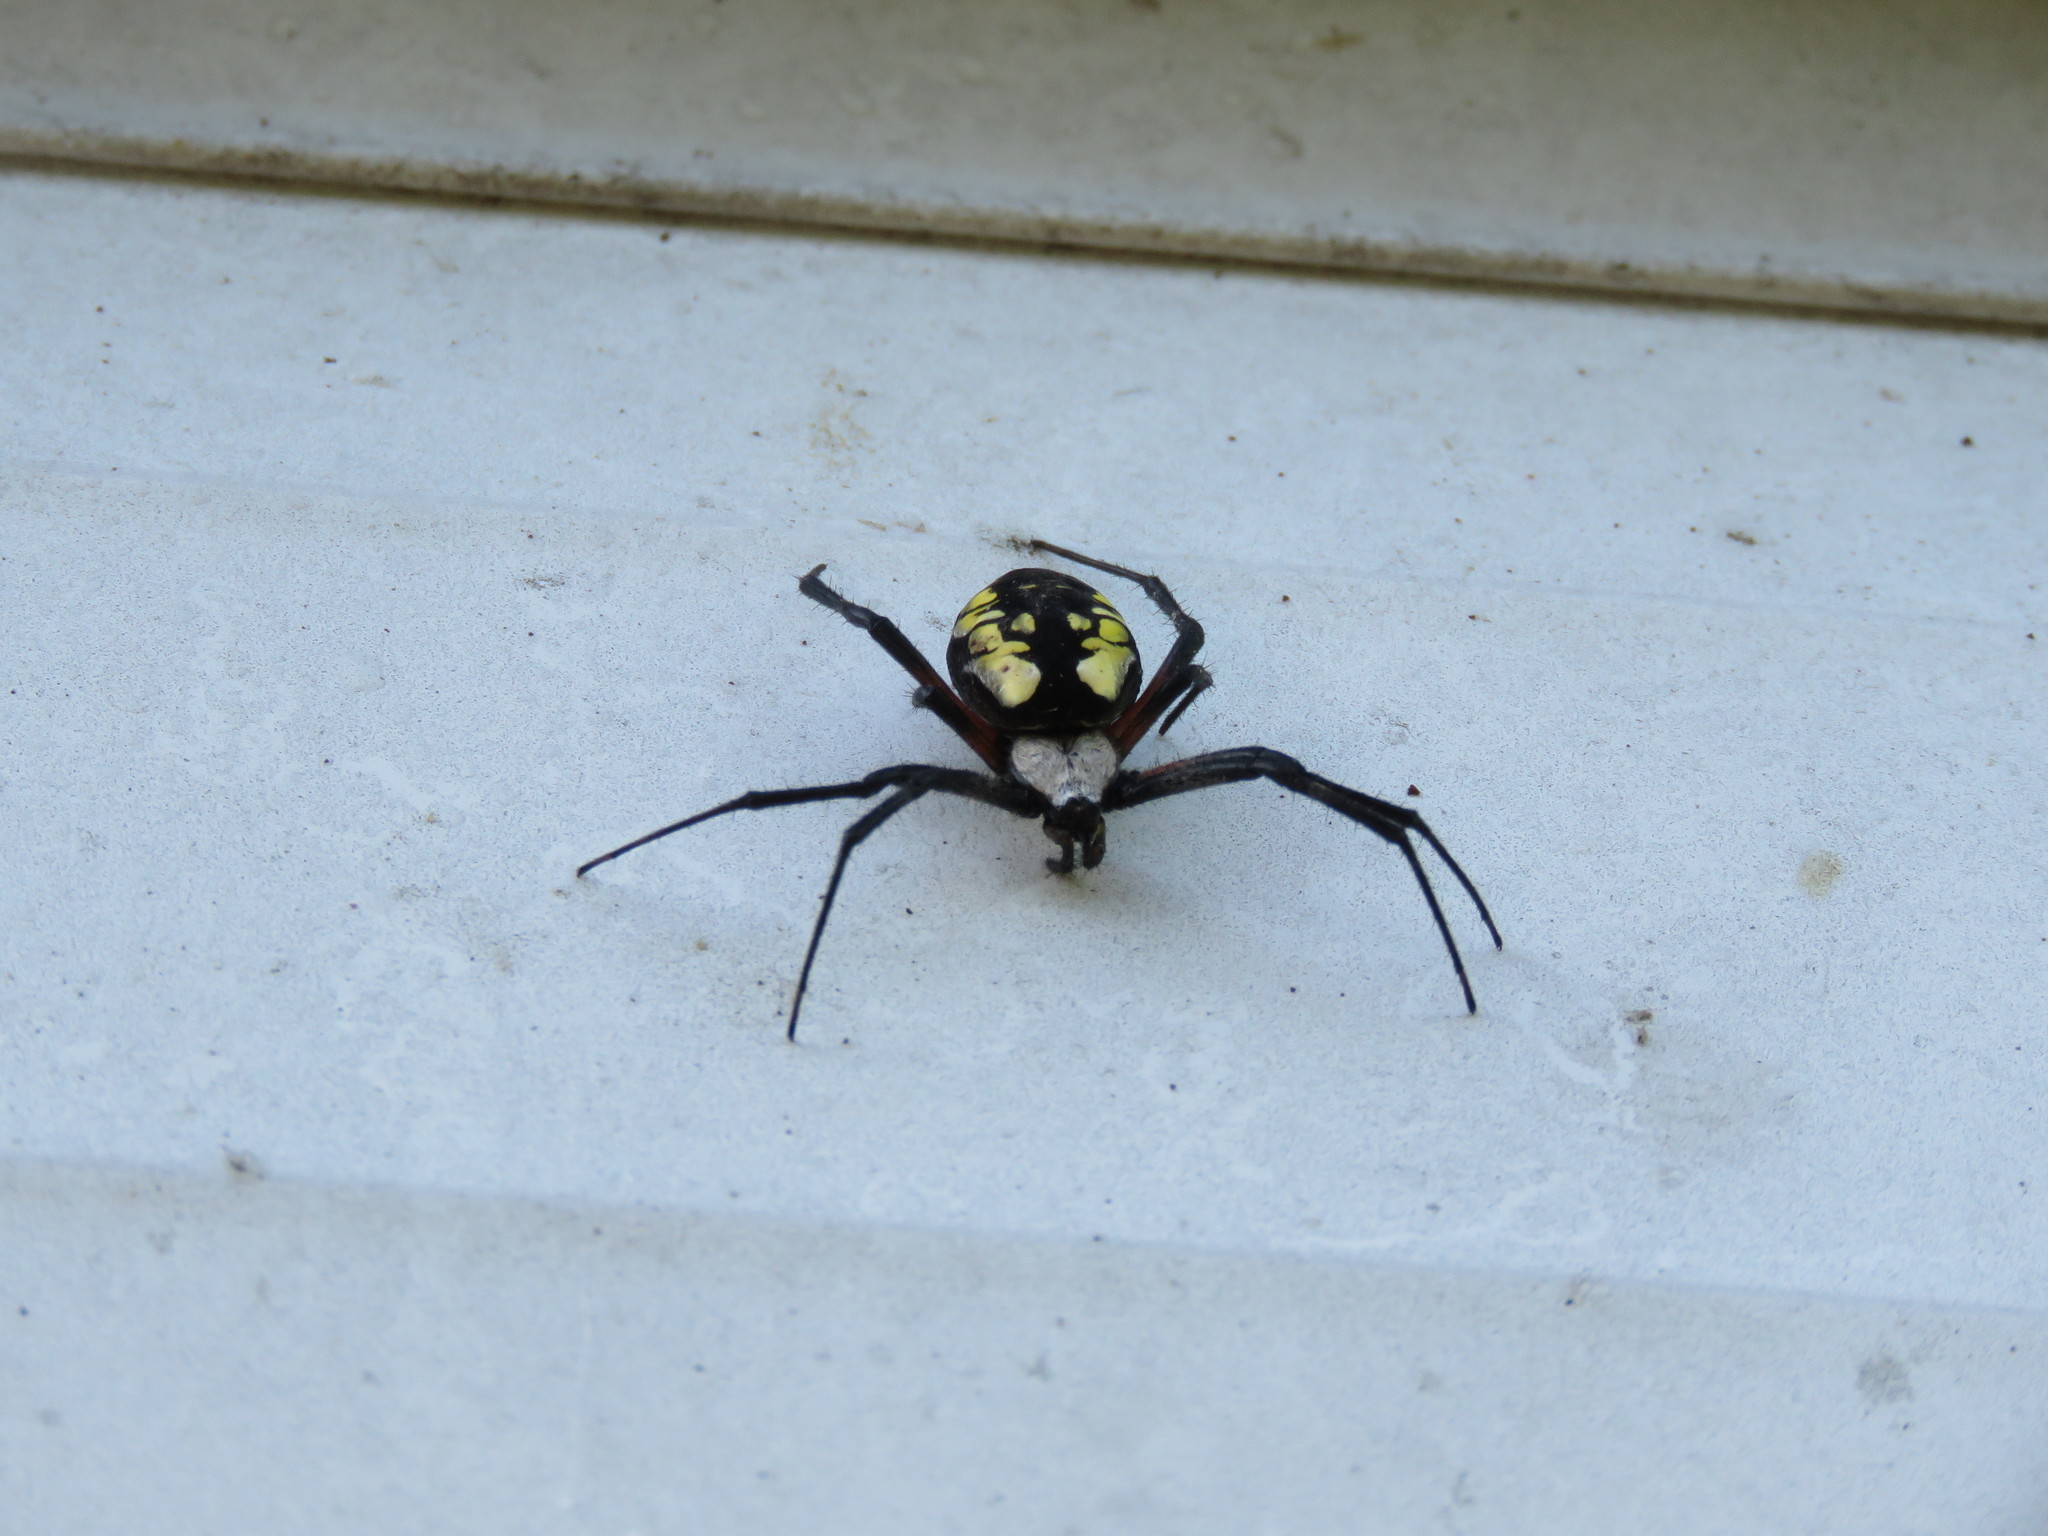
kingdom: Animalia
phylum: Arthropoda
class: Arachnida
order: Araneae
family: Araneidae
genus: Argiope
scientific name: Argiope aurantia
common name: Orb weavers
